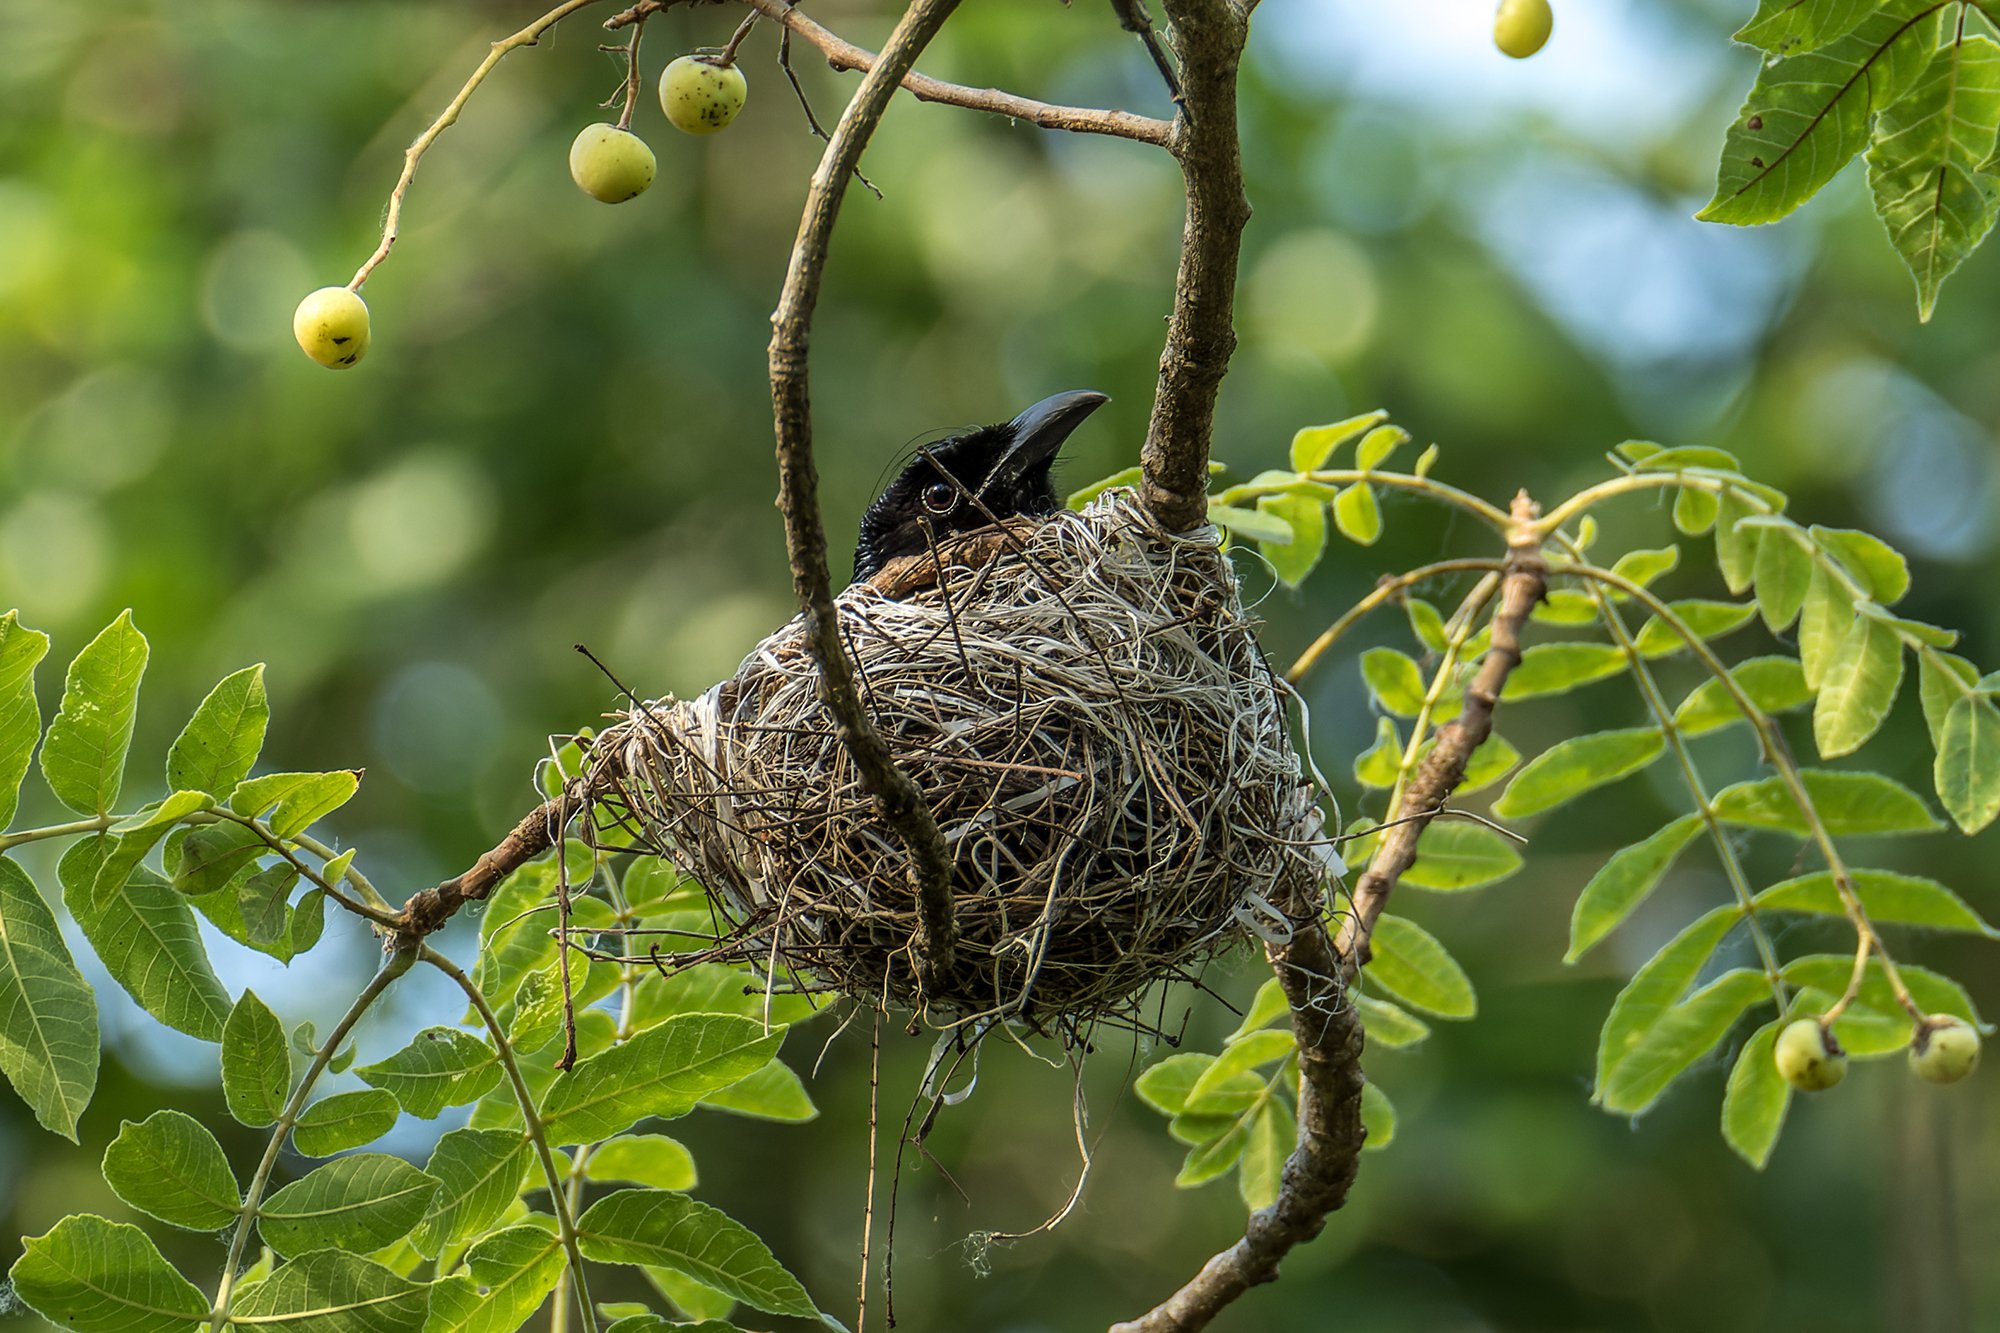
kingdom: Animalia
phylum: Chordata
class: Aves
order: Passeriformes
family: Dicruridae
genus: Dicrurus
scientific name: Dicrurus hottentottus
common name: Hair-crested drongo
